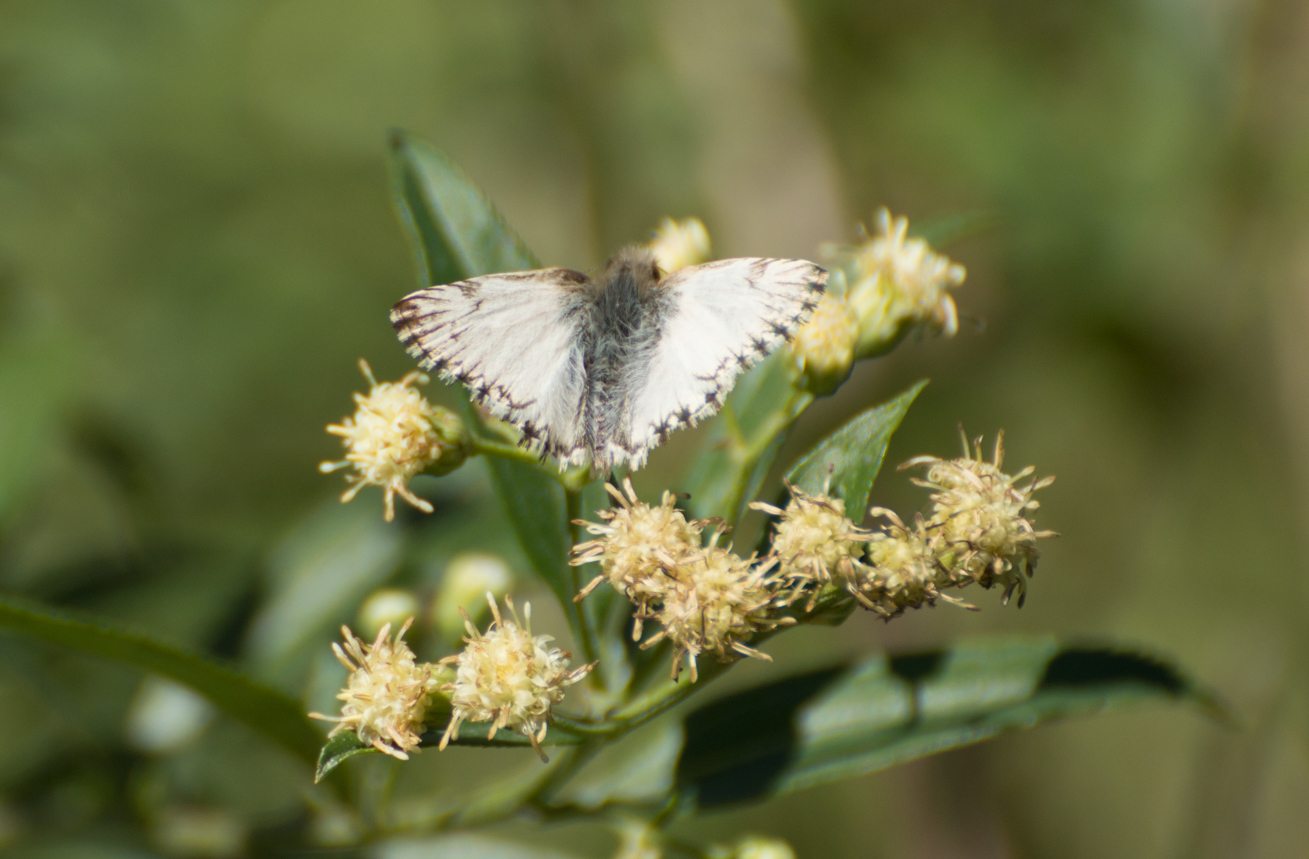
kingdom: Animalia
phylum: Arthropoda
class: Insecta
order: Lepidoptera
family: Hesperiidae
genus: Heliopetes
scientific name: Heliopetes omrina
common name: Stained white-skipper
